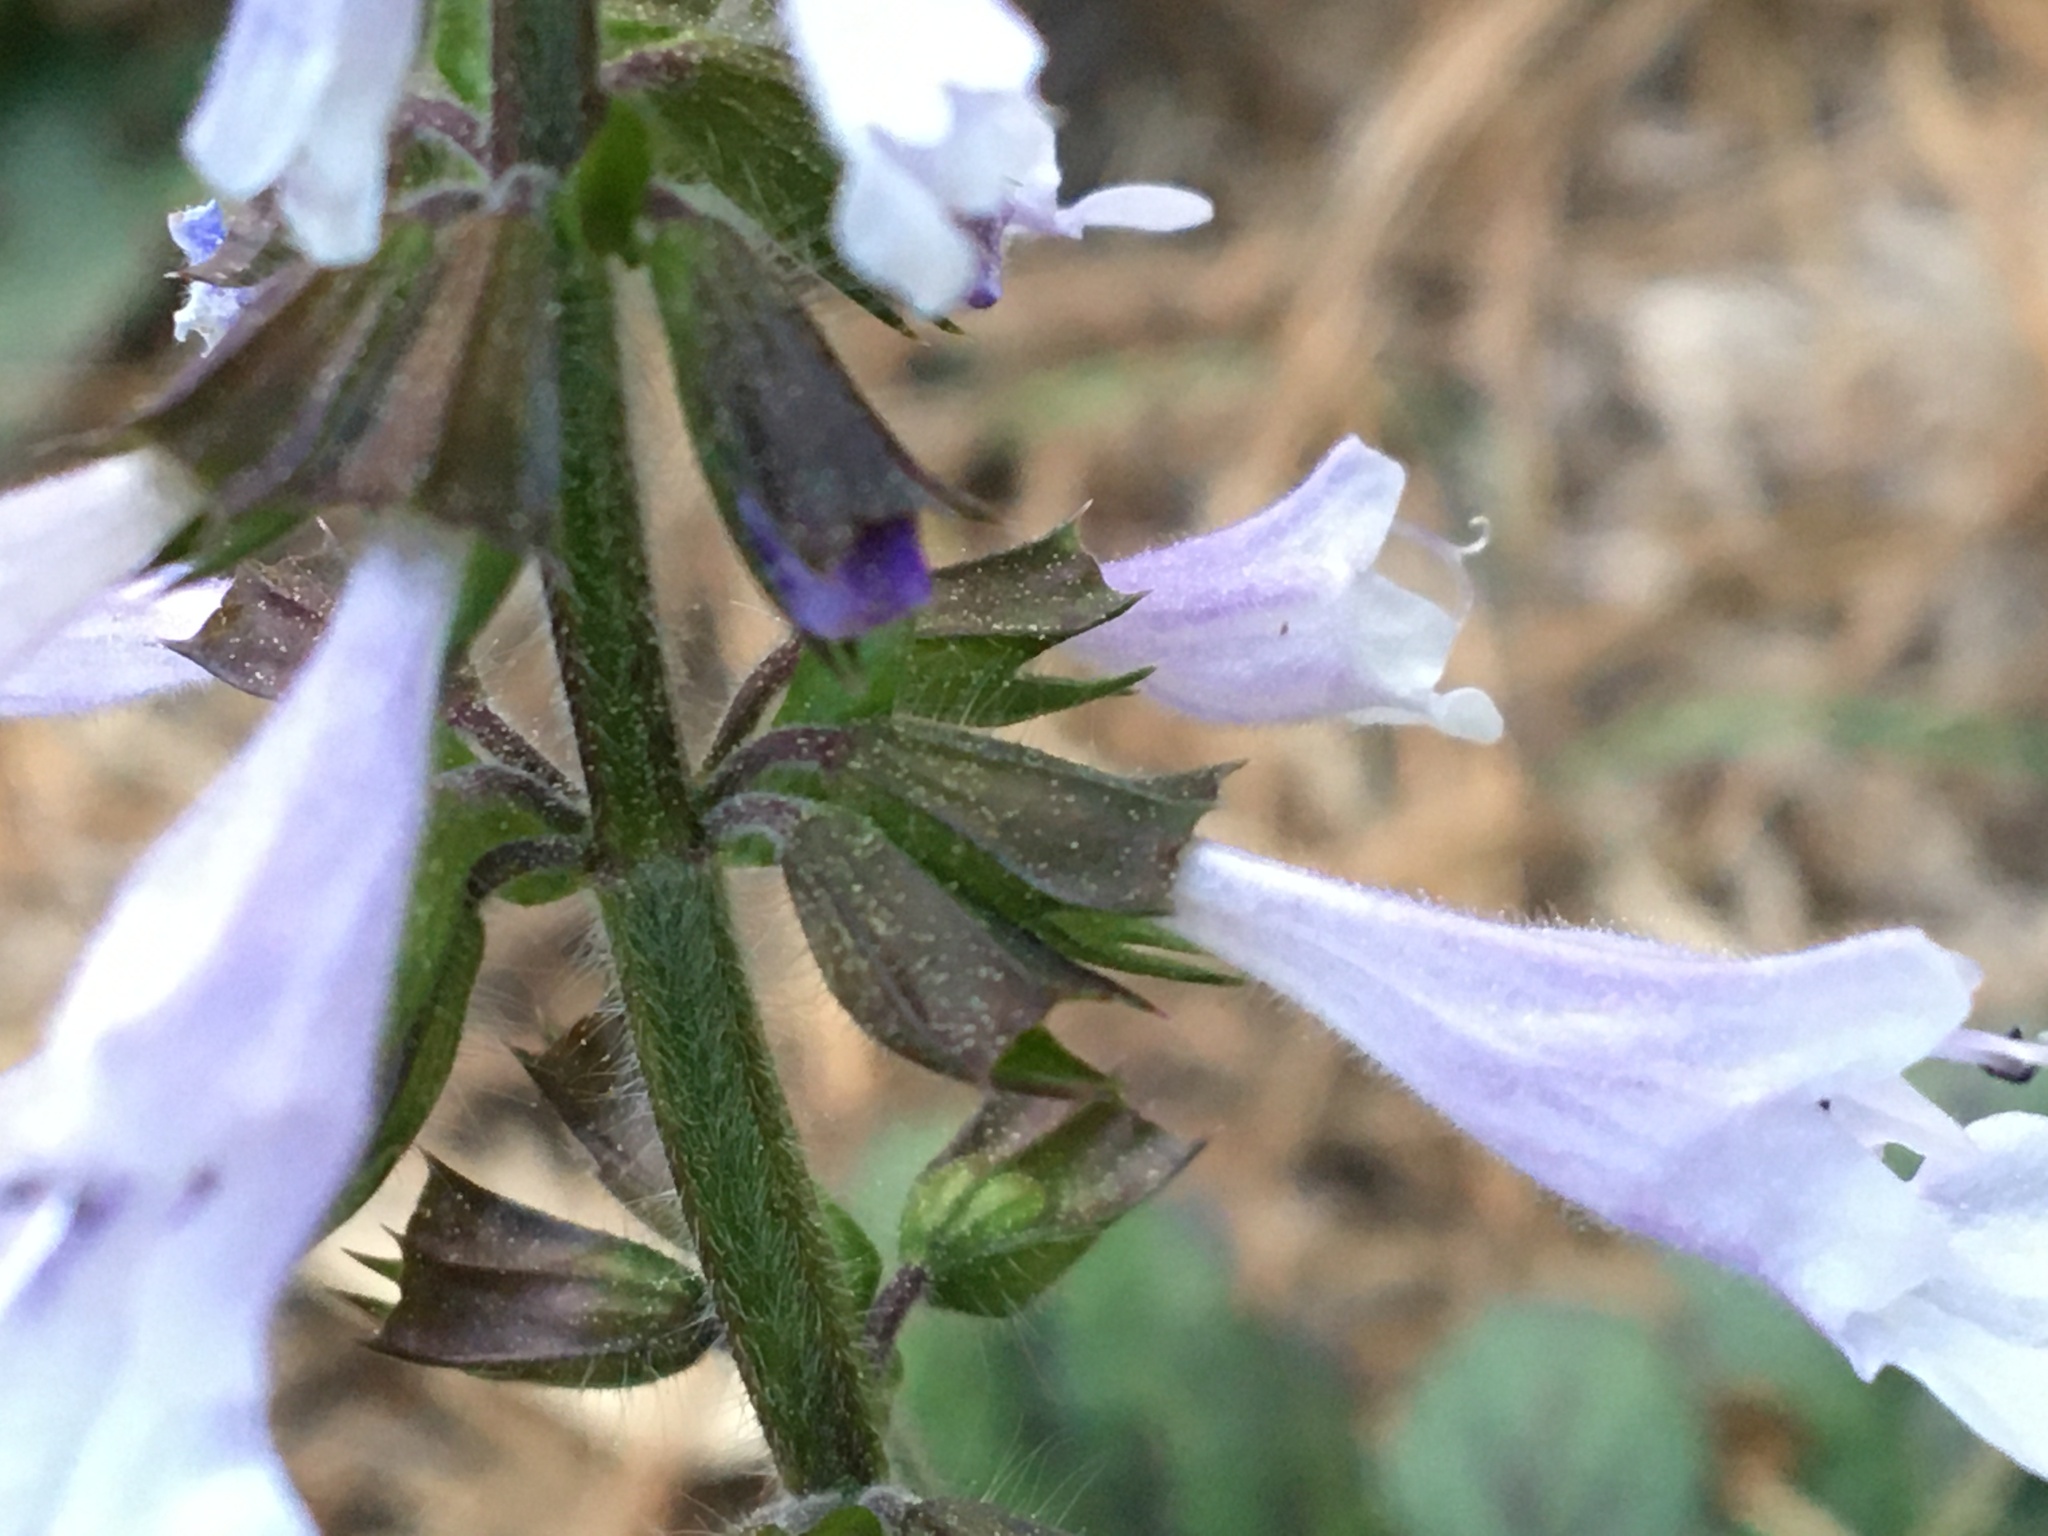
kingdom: Plantae
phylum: Tracheophyta
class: Magnoliopsida
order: Lamiales
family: Lamiaceae
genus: Salvia
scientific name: Salvia lyrata
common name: Cancerweed
